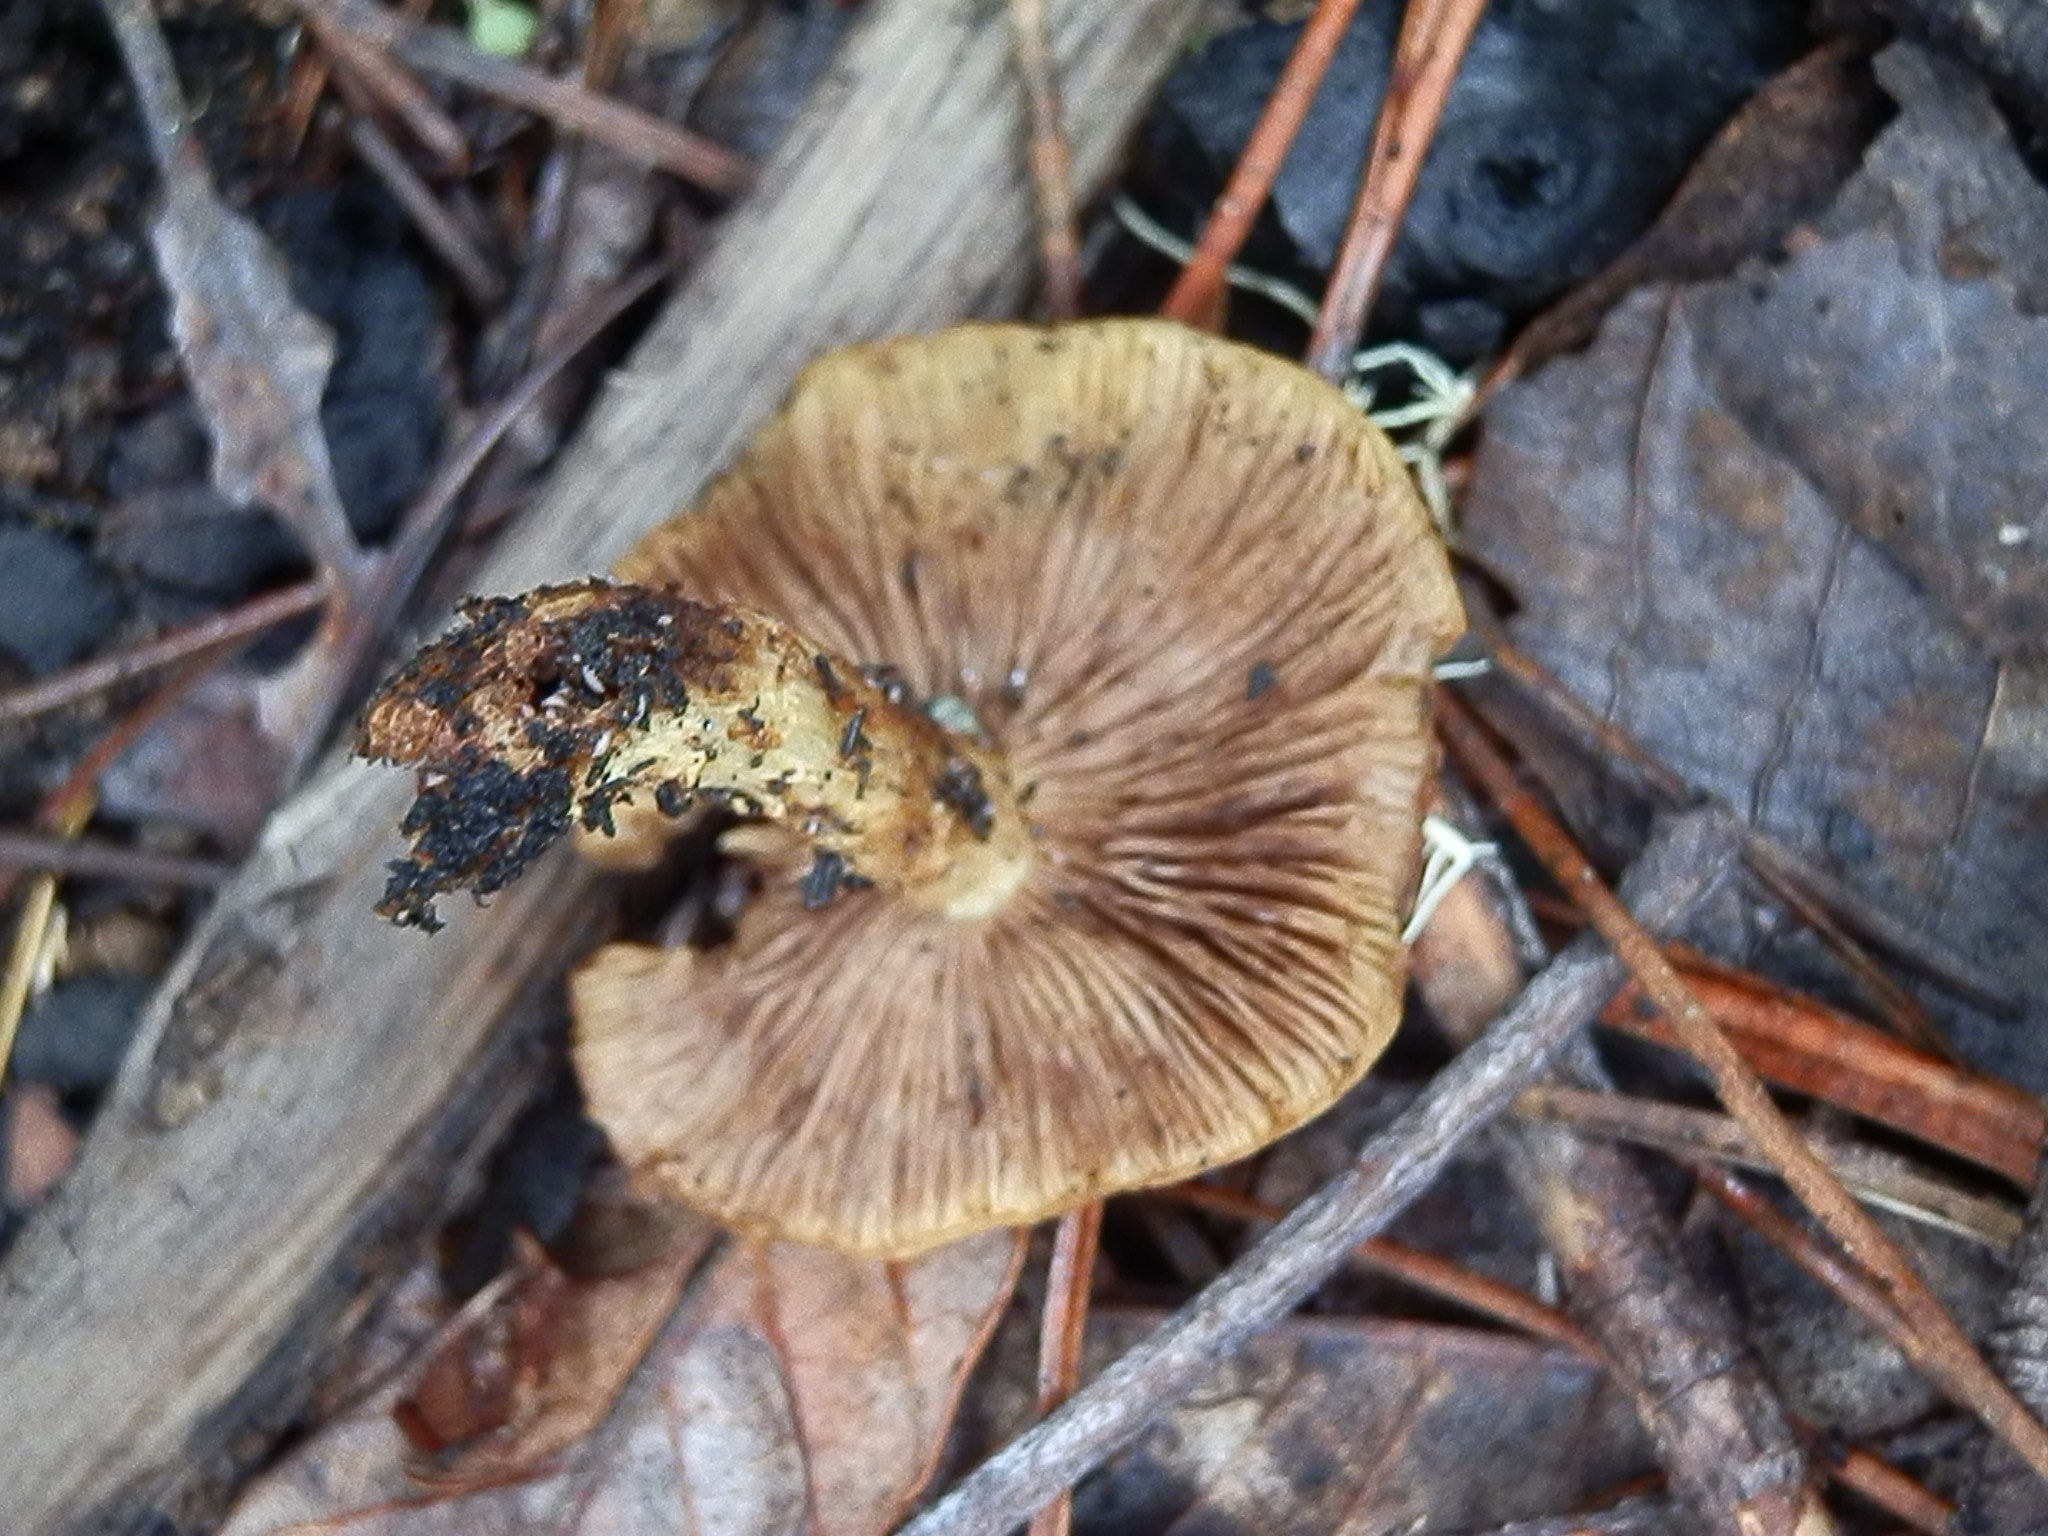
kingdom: Fungi
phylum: Basidiomycota
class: Agaricomycetes
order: Agaricales
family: Strophariaceae
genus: Pholiota
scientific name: Pholiota carbonaria
